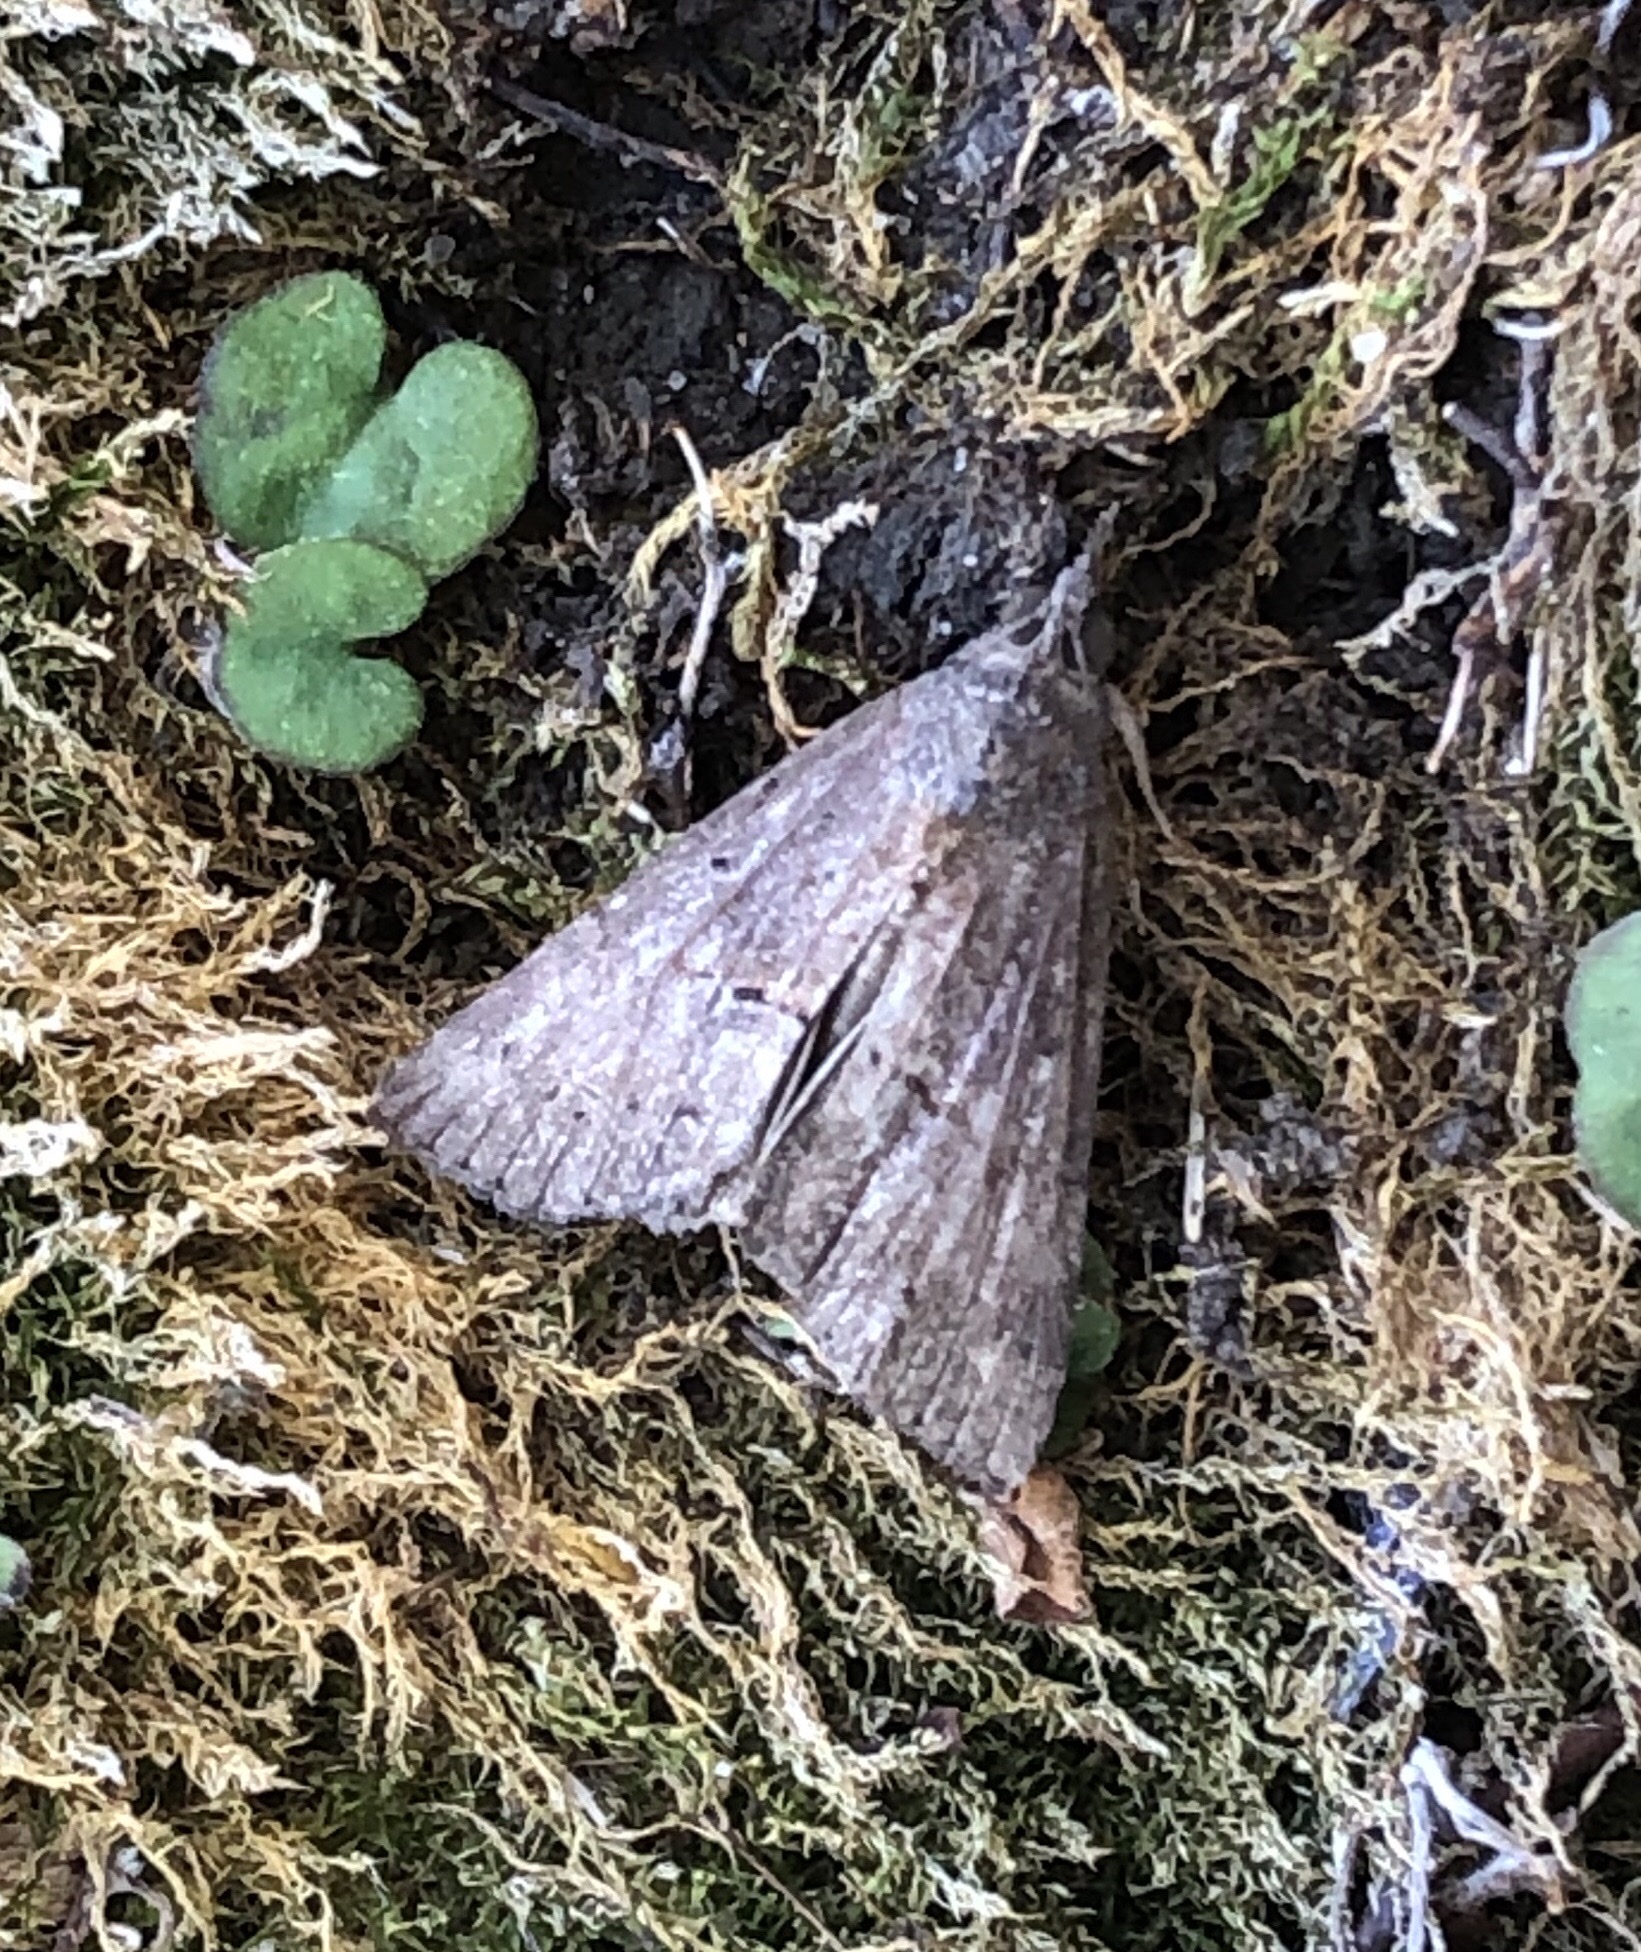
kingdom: Animalia
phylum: Arthropoda
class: Insecta
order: Lepidoptera
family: Erebidae
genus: Hypena
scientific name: Hypena scabra
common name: Green cloverworm
